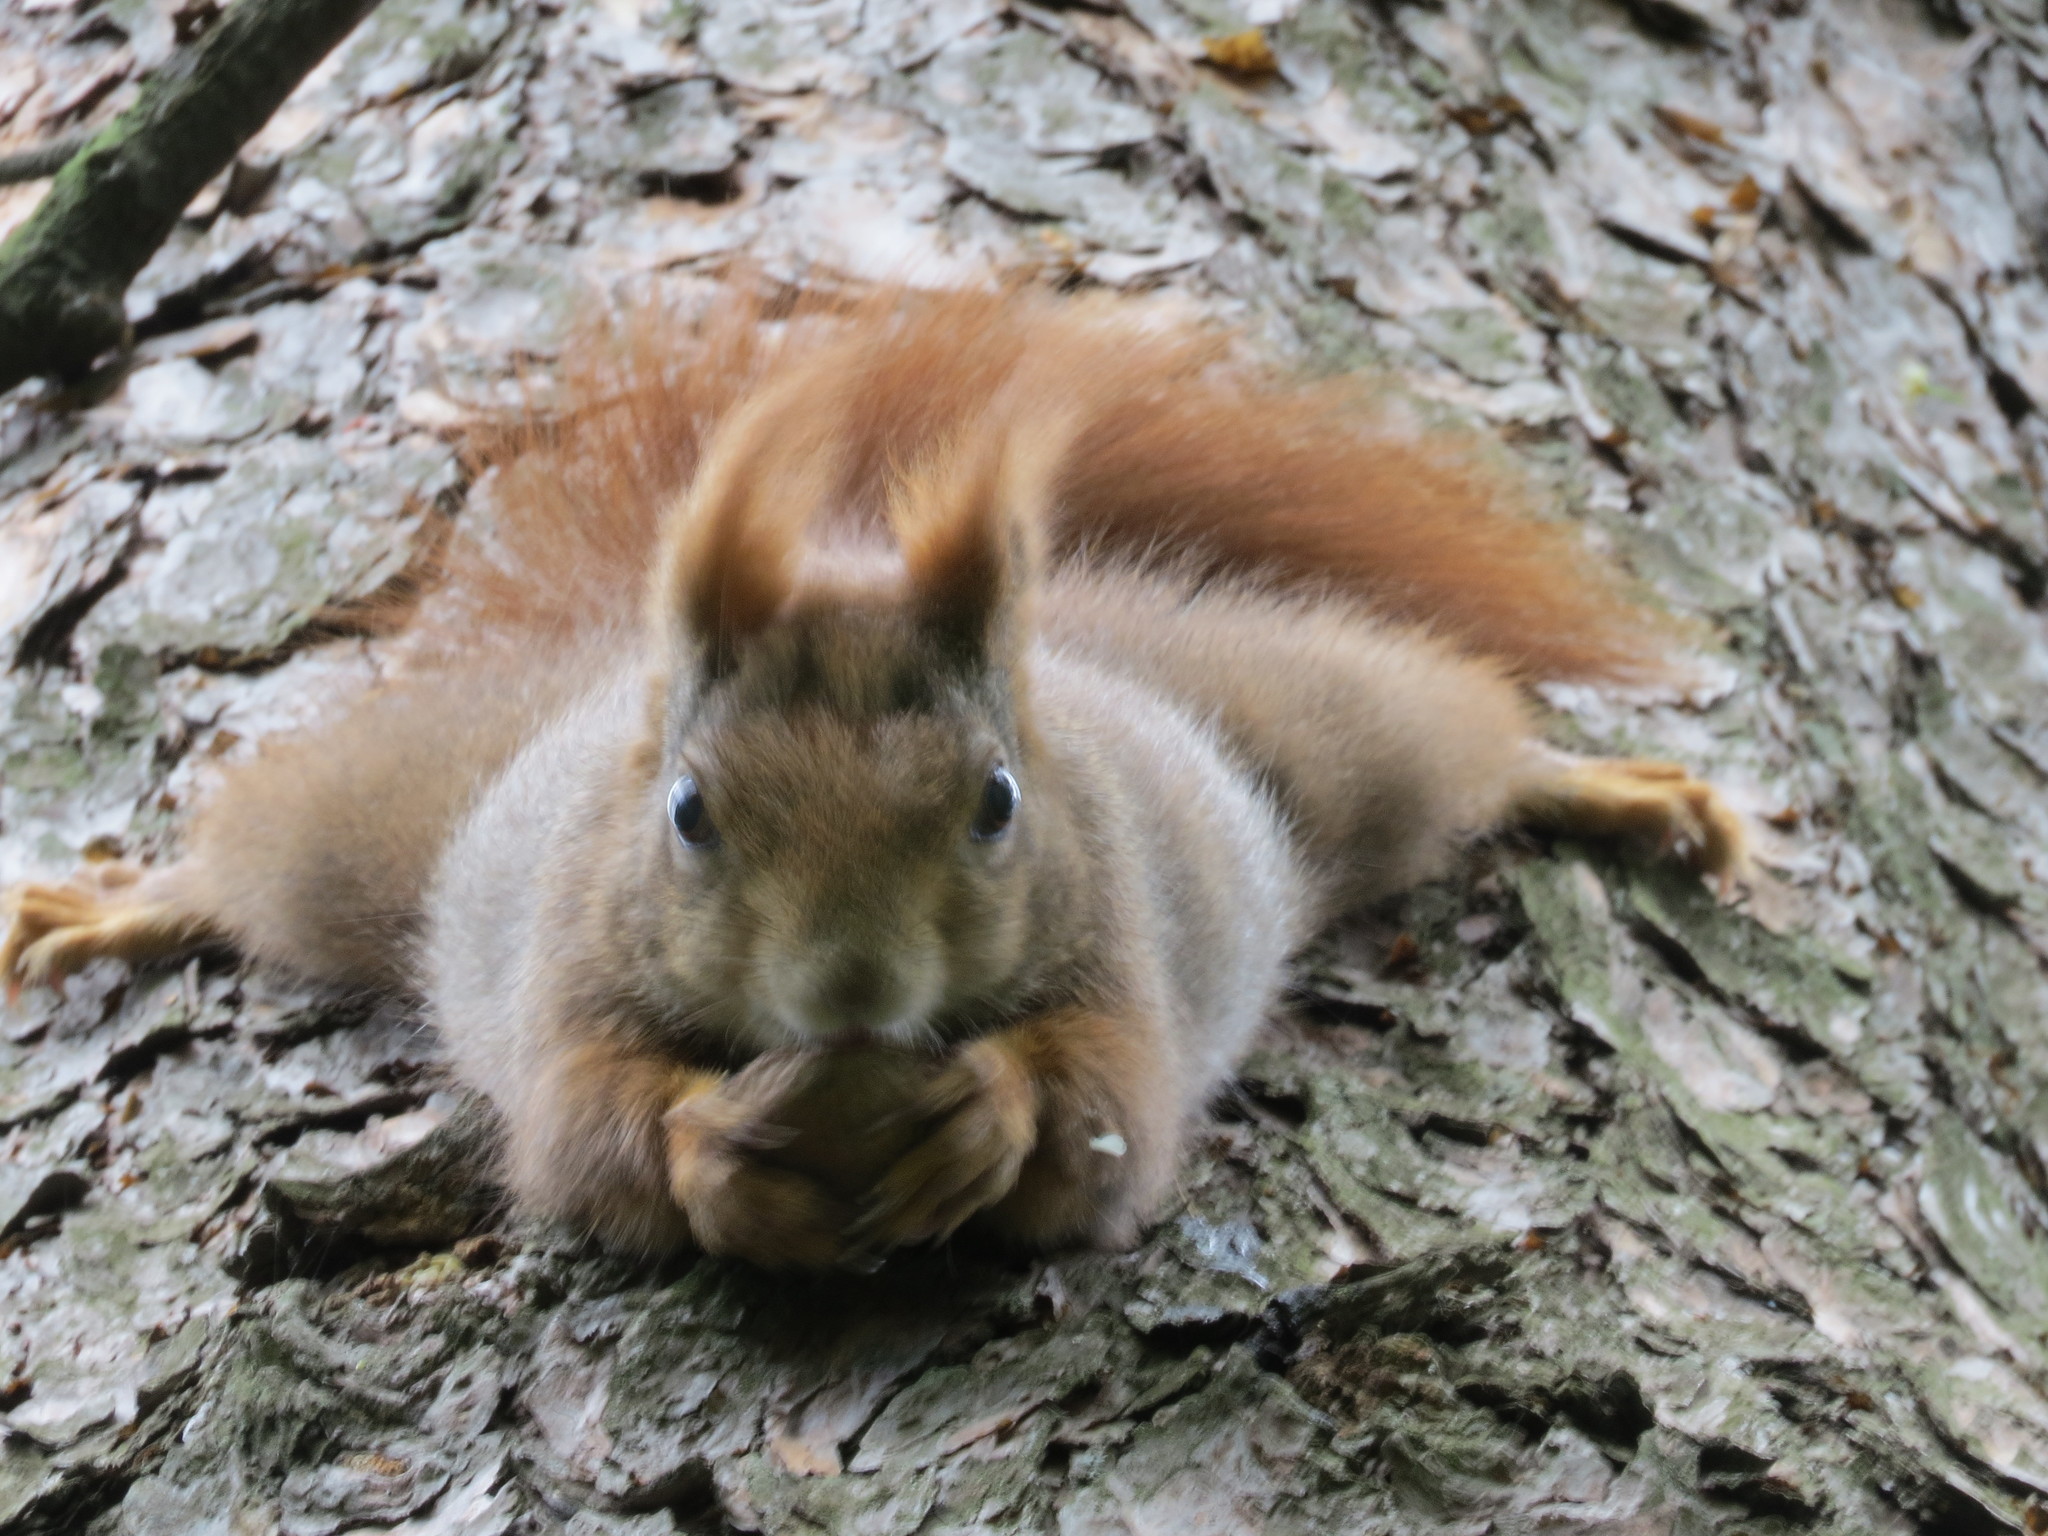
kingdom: Animalia
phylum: Chordata
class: Mammalia
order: Rodentia
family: Sciuridae
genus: Sciurus
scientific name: Sciurus vulgaris
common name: Eurasian red squirrel
